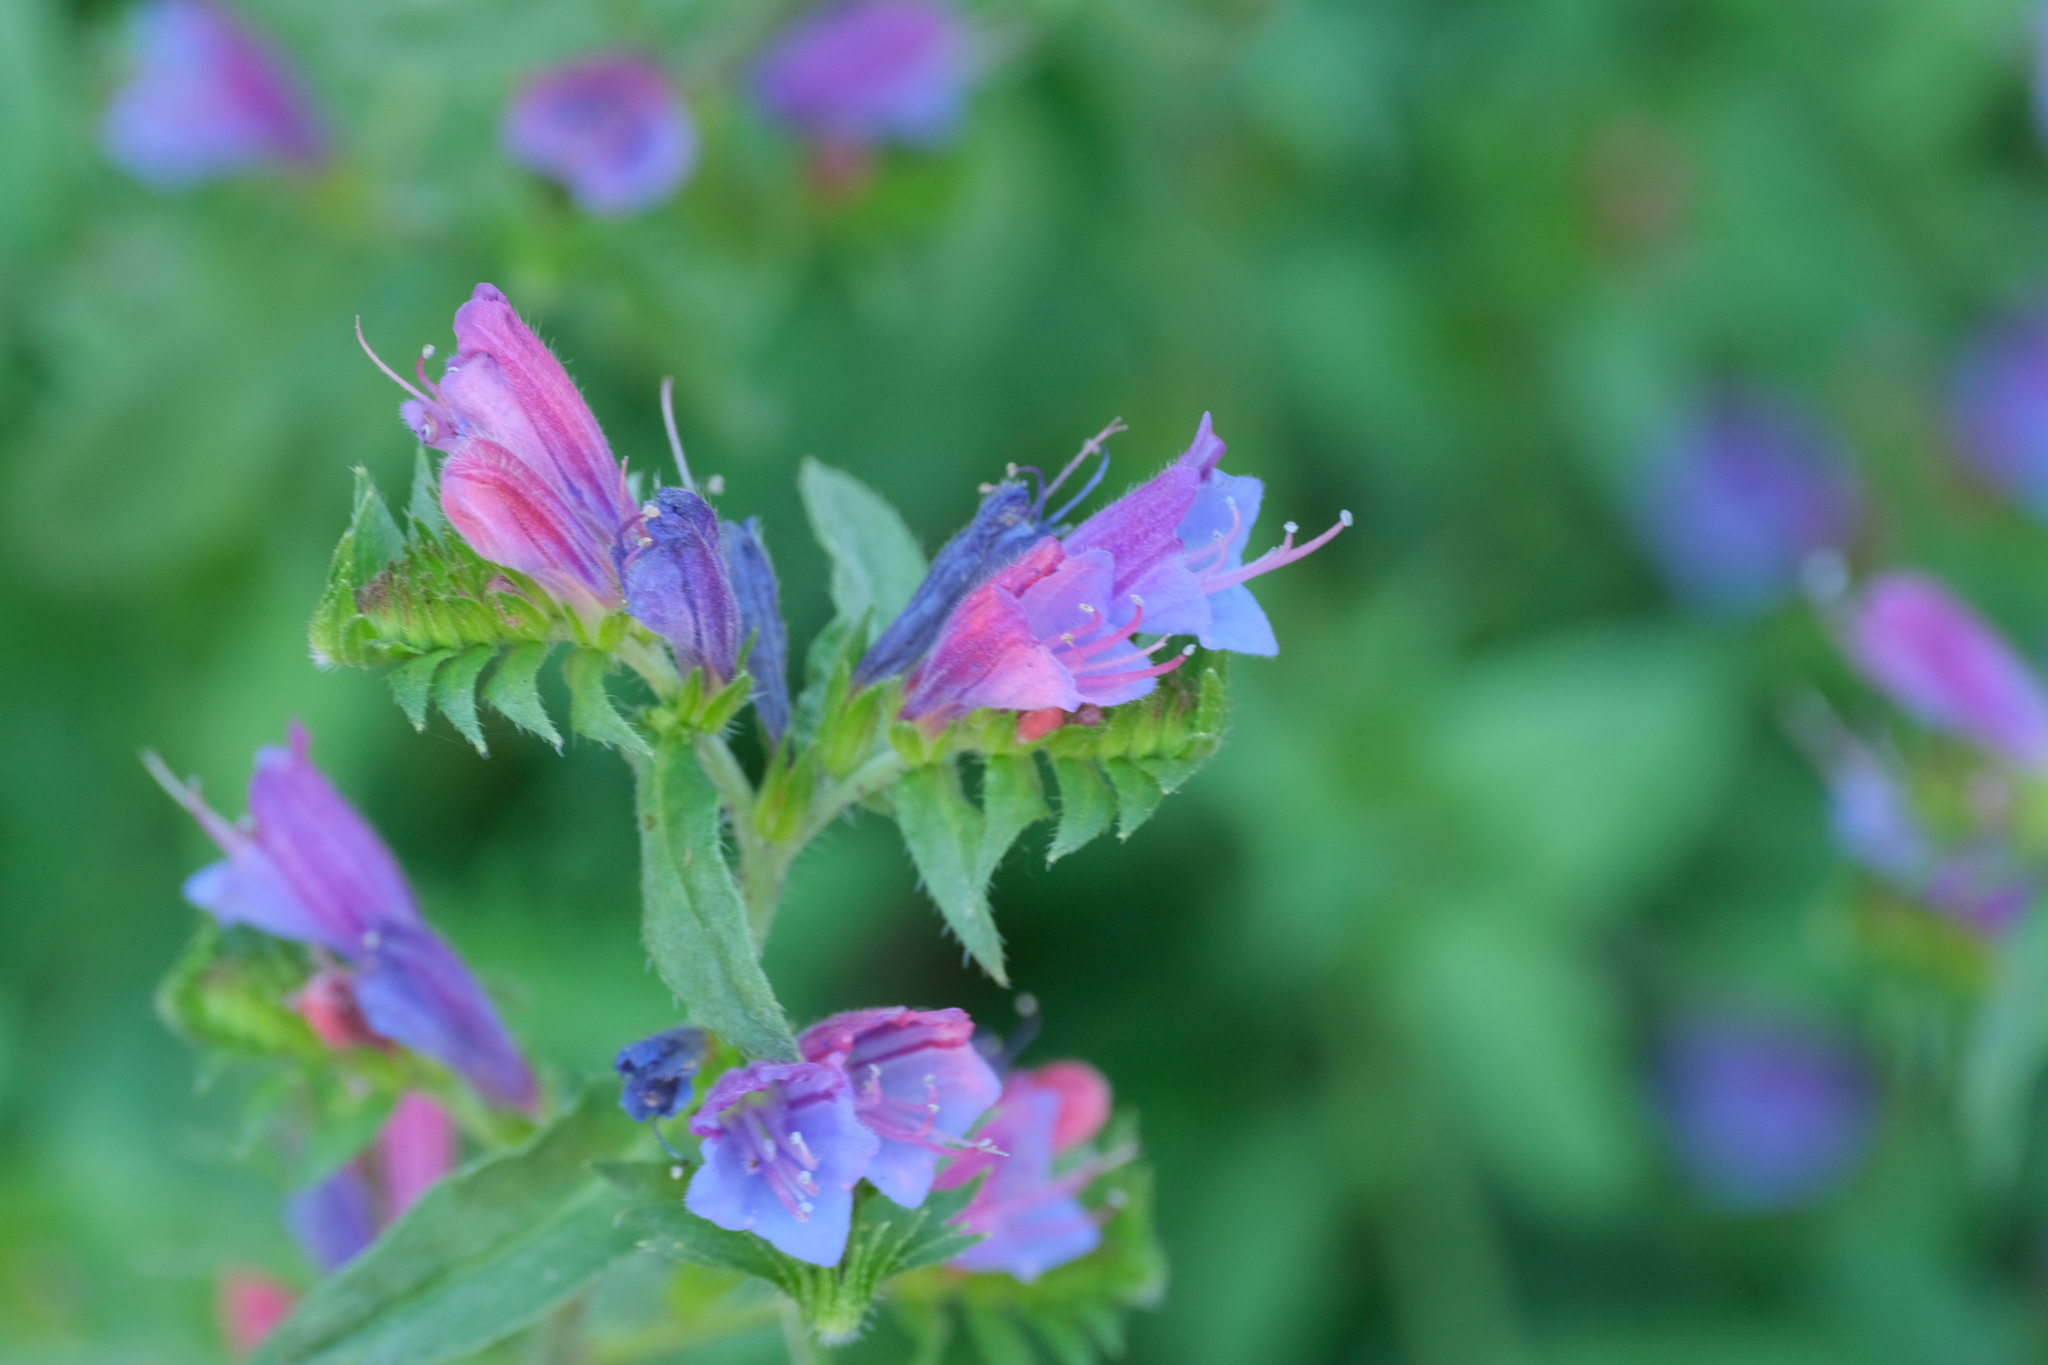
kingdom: Plantae
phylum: Tracheophyta
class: Magnoliopsida
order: Boraginales
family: Boraginaceae
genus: Echium
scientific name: Echium rosulatum
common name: Lax viper's-bugloss
